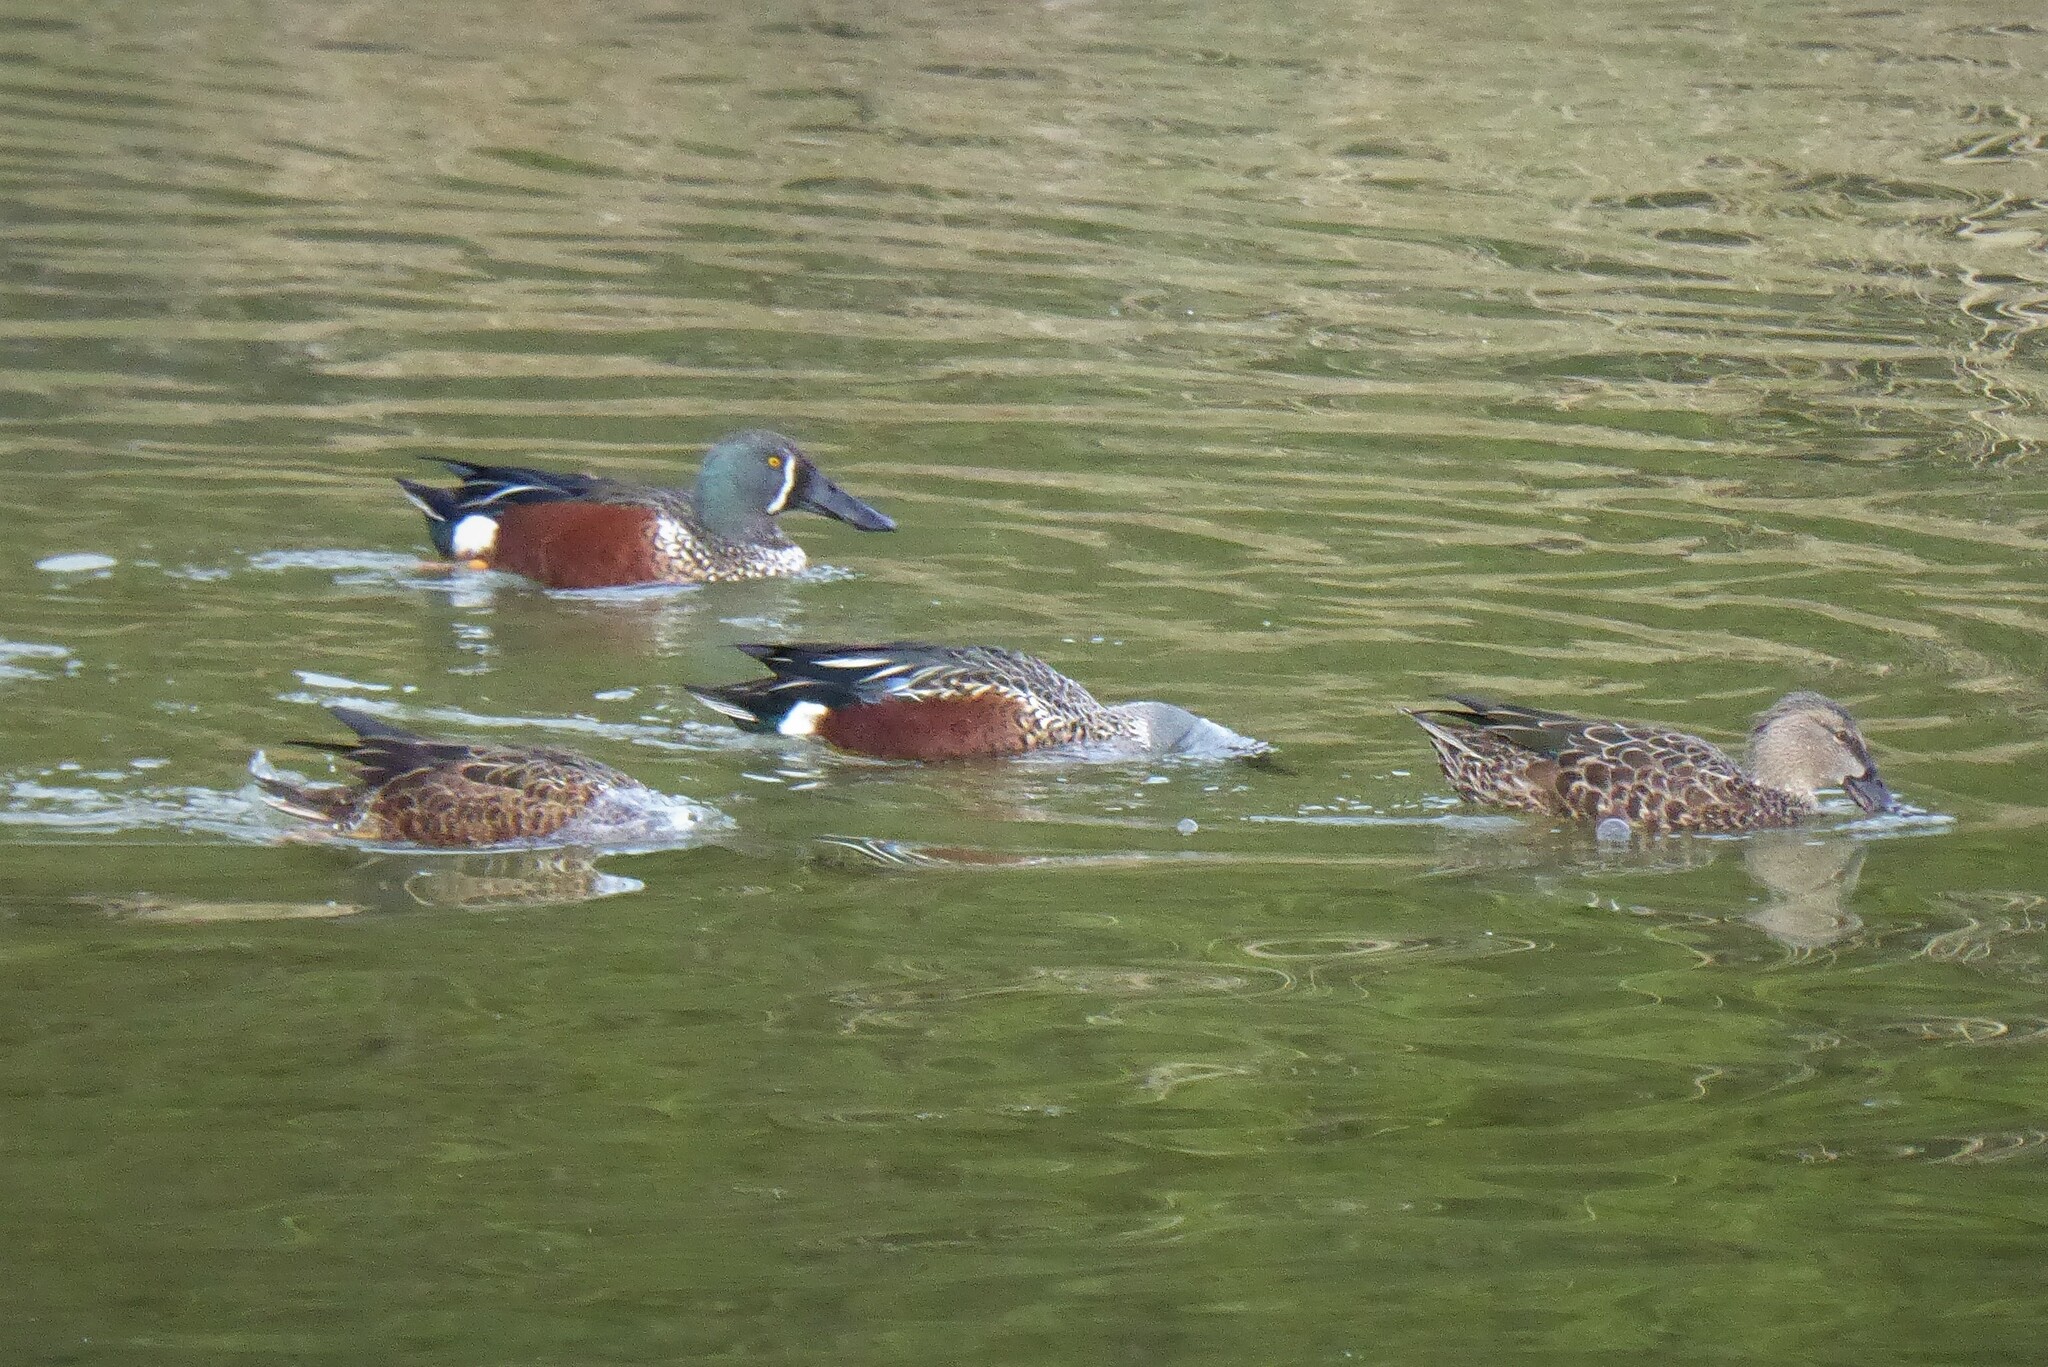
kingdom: Animalia
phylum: Chordata
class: Aves
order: Anseriformes
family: Anatidae
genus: Spatula
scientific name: Spatula rhynchotis
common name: Australian shoveler
